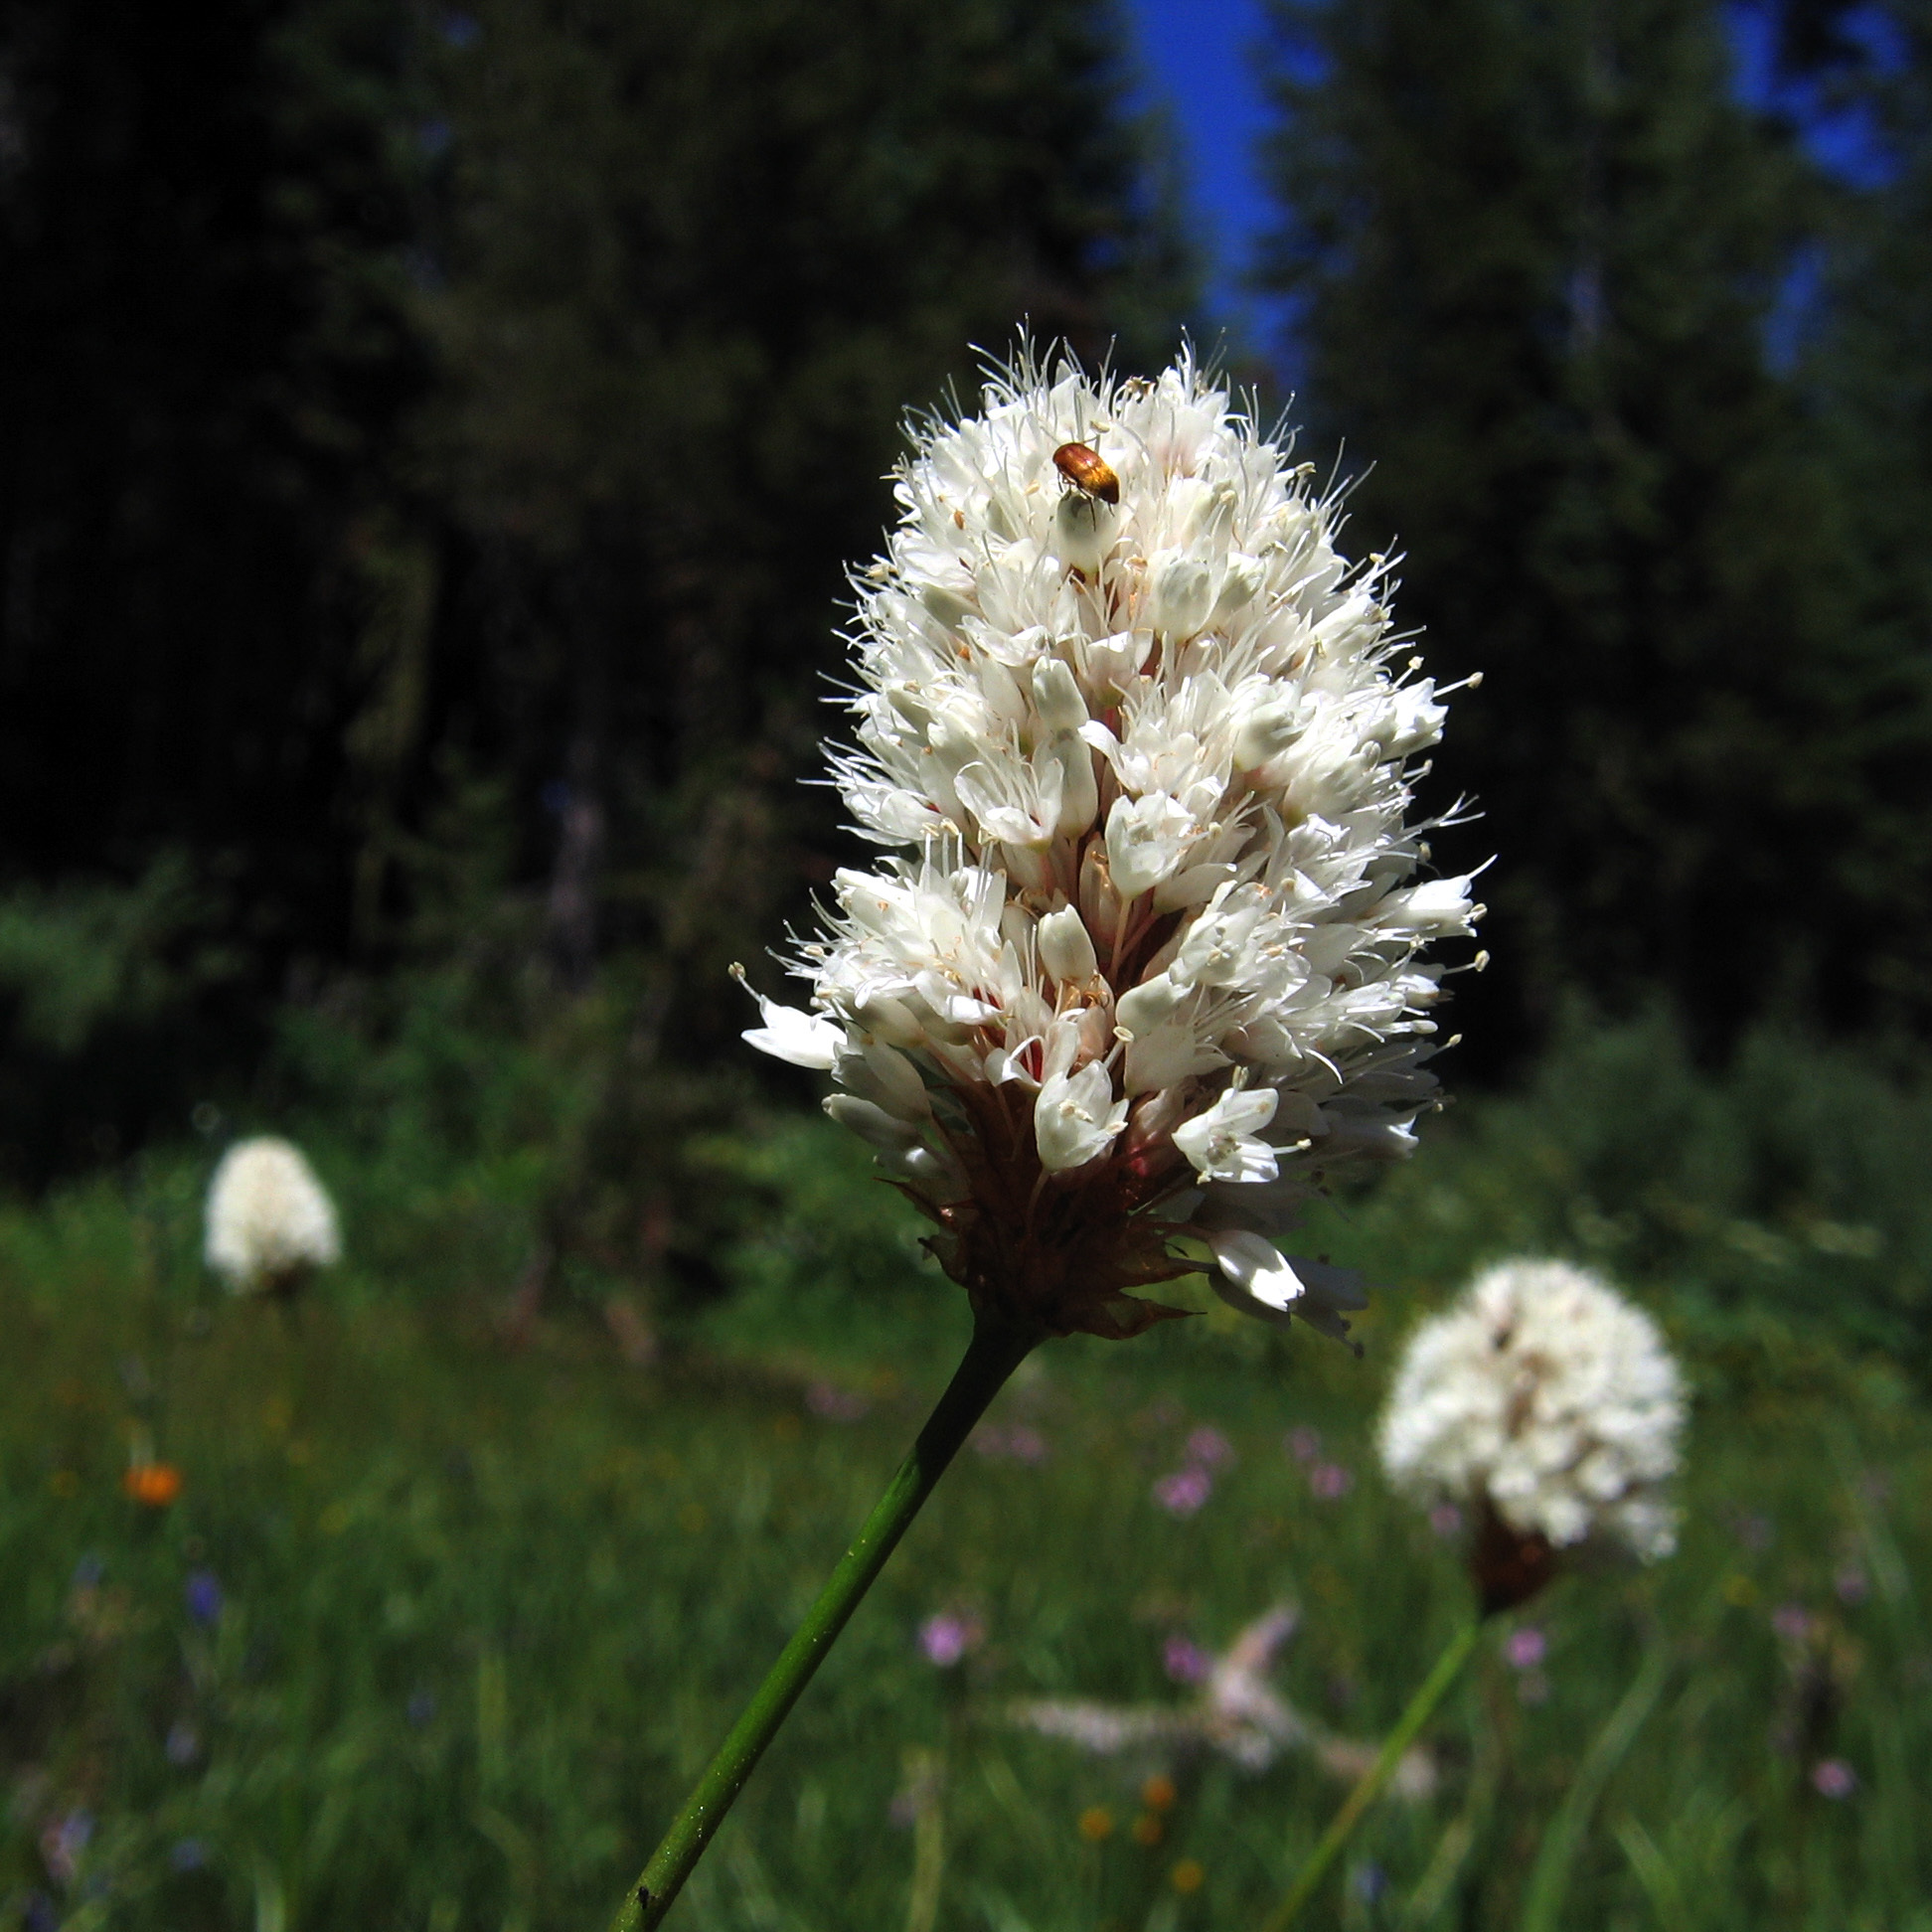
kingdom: Plantae
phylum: Tracheophyta
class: Magnoliopsida
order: Caryophyllales
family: Polygonaceae
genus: Bistorta
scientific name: Bistorta bistortoides
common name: American bistort
